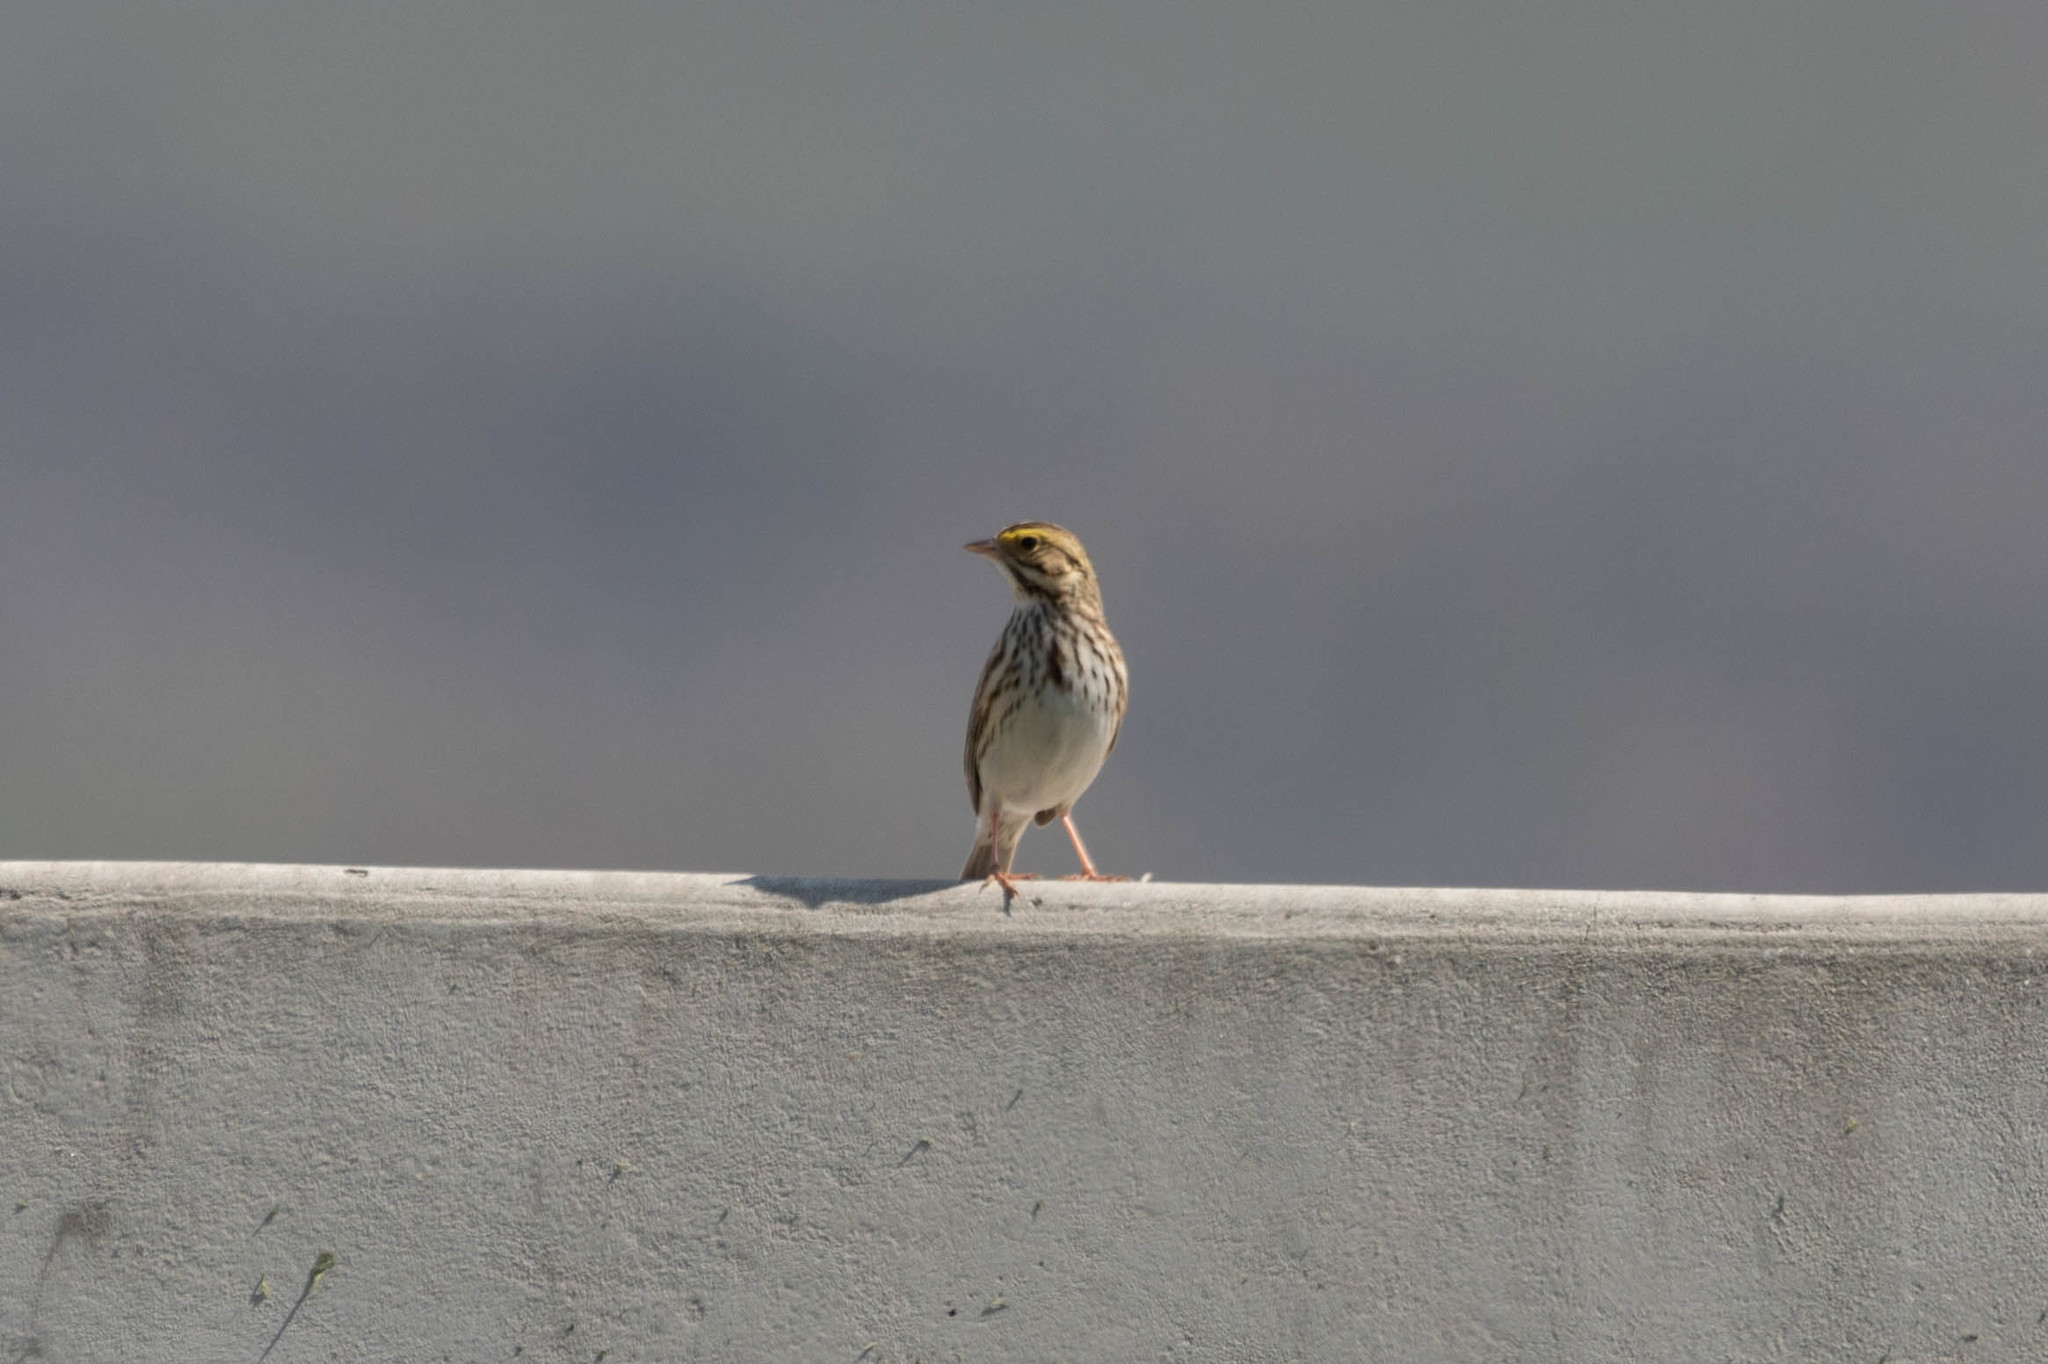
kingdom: Animalia
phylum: Chordata
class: Aves
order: Passeriformes
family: Passerellidae
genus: Passerculus
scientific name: Passerculus sandwichensis
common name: Savannah sparrow
